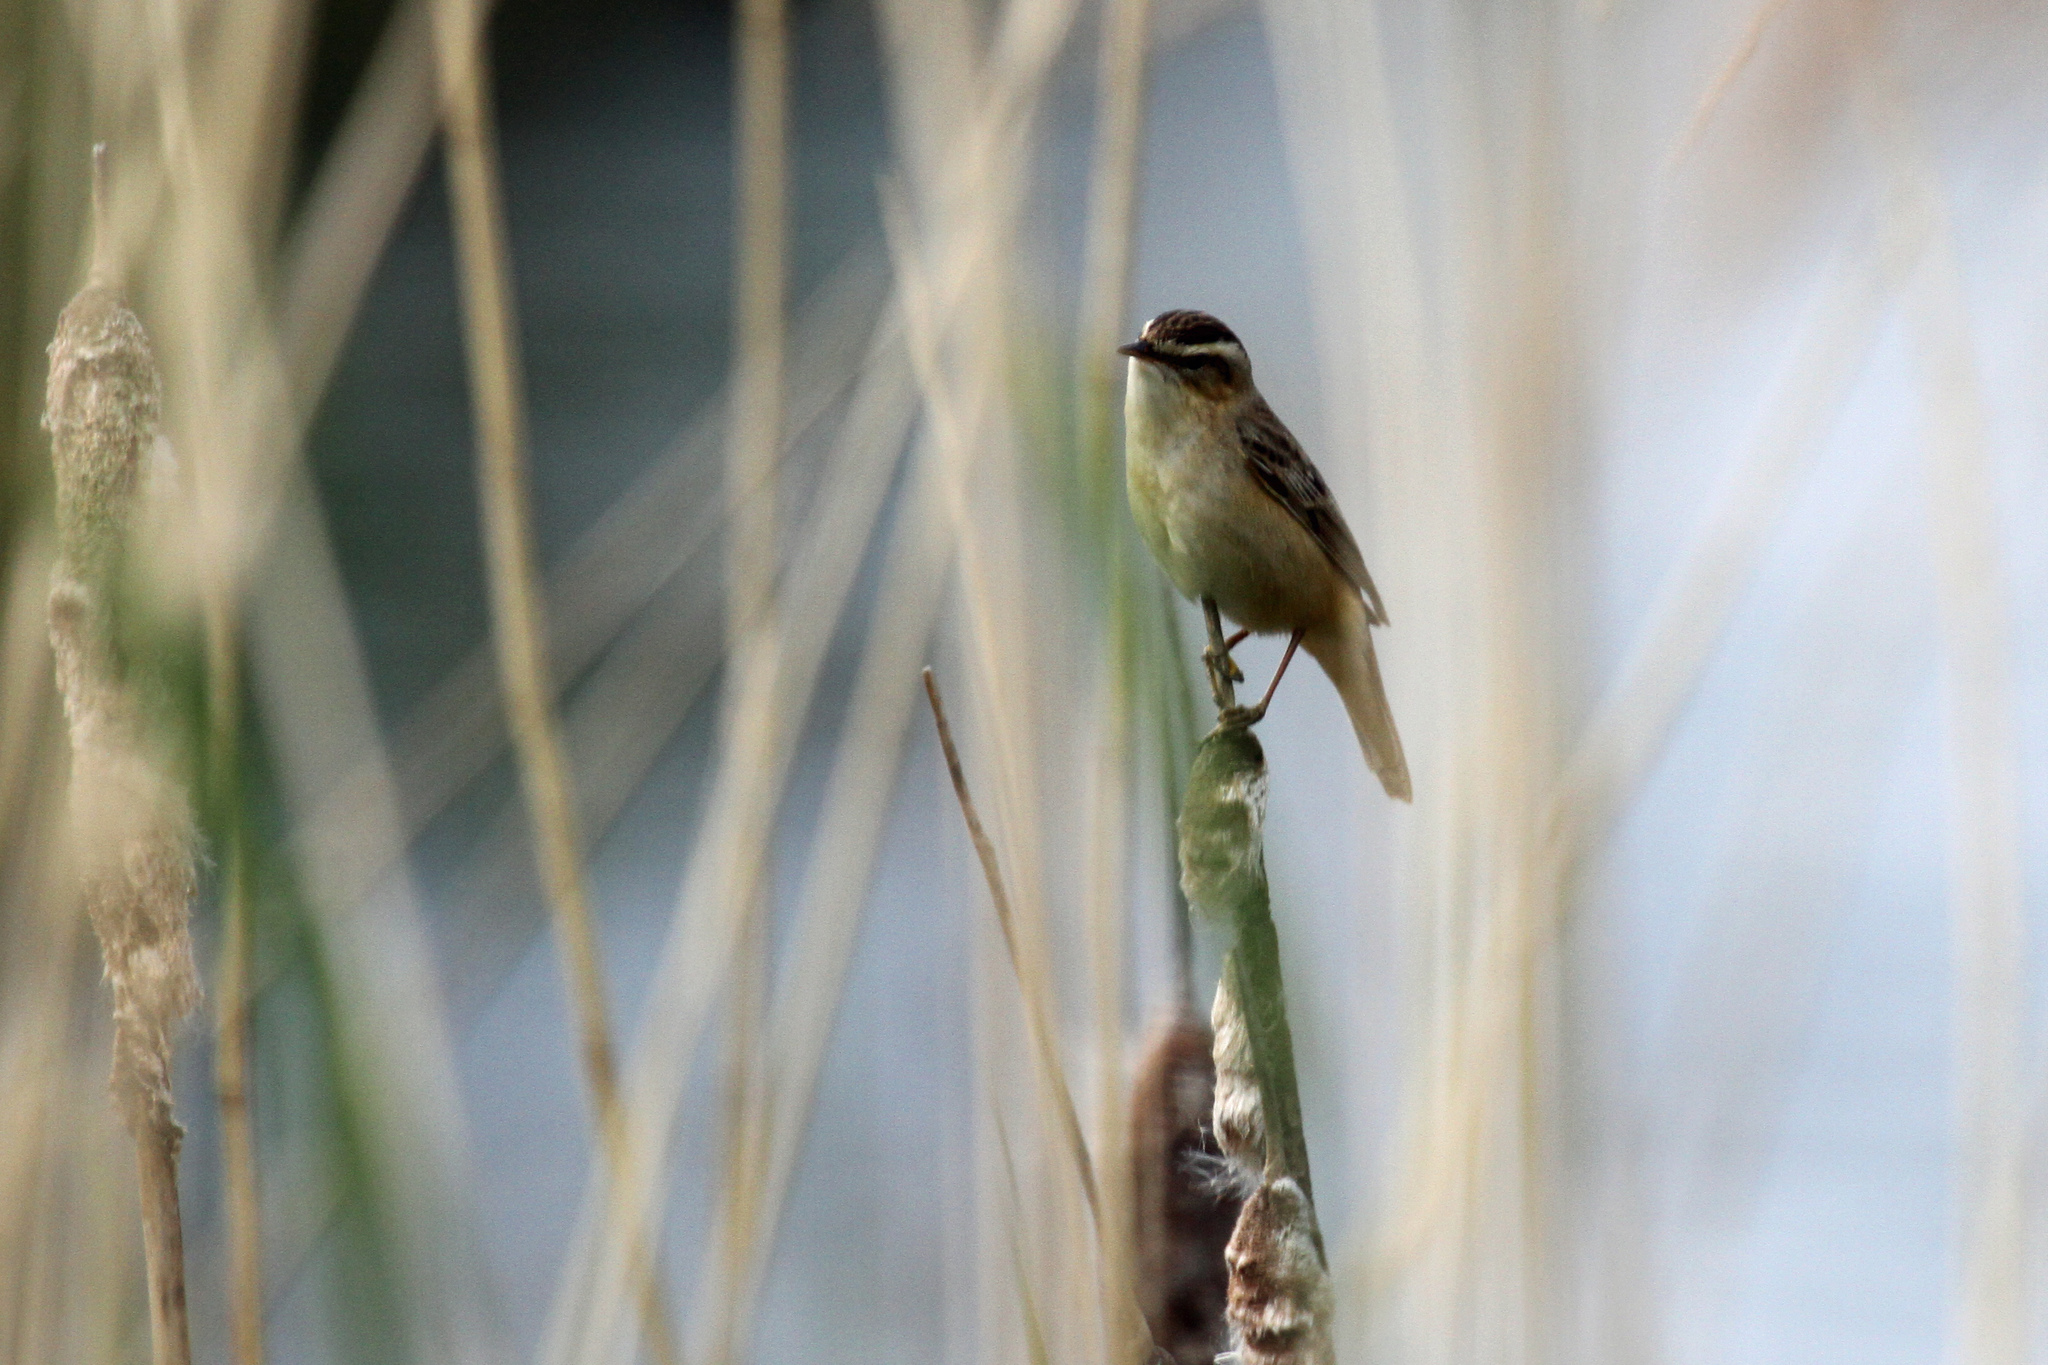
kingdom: Animalia
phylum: Chordata
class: Aves
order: Passeriformes
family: Acrocephalidae
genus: Acrocephalus
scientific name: Acrocephalus schoenobaenus
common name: Sedge warbler
